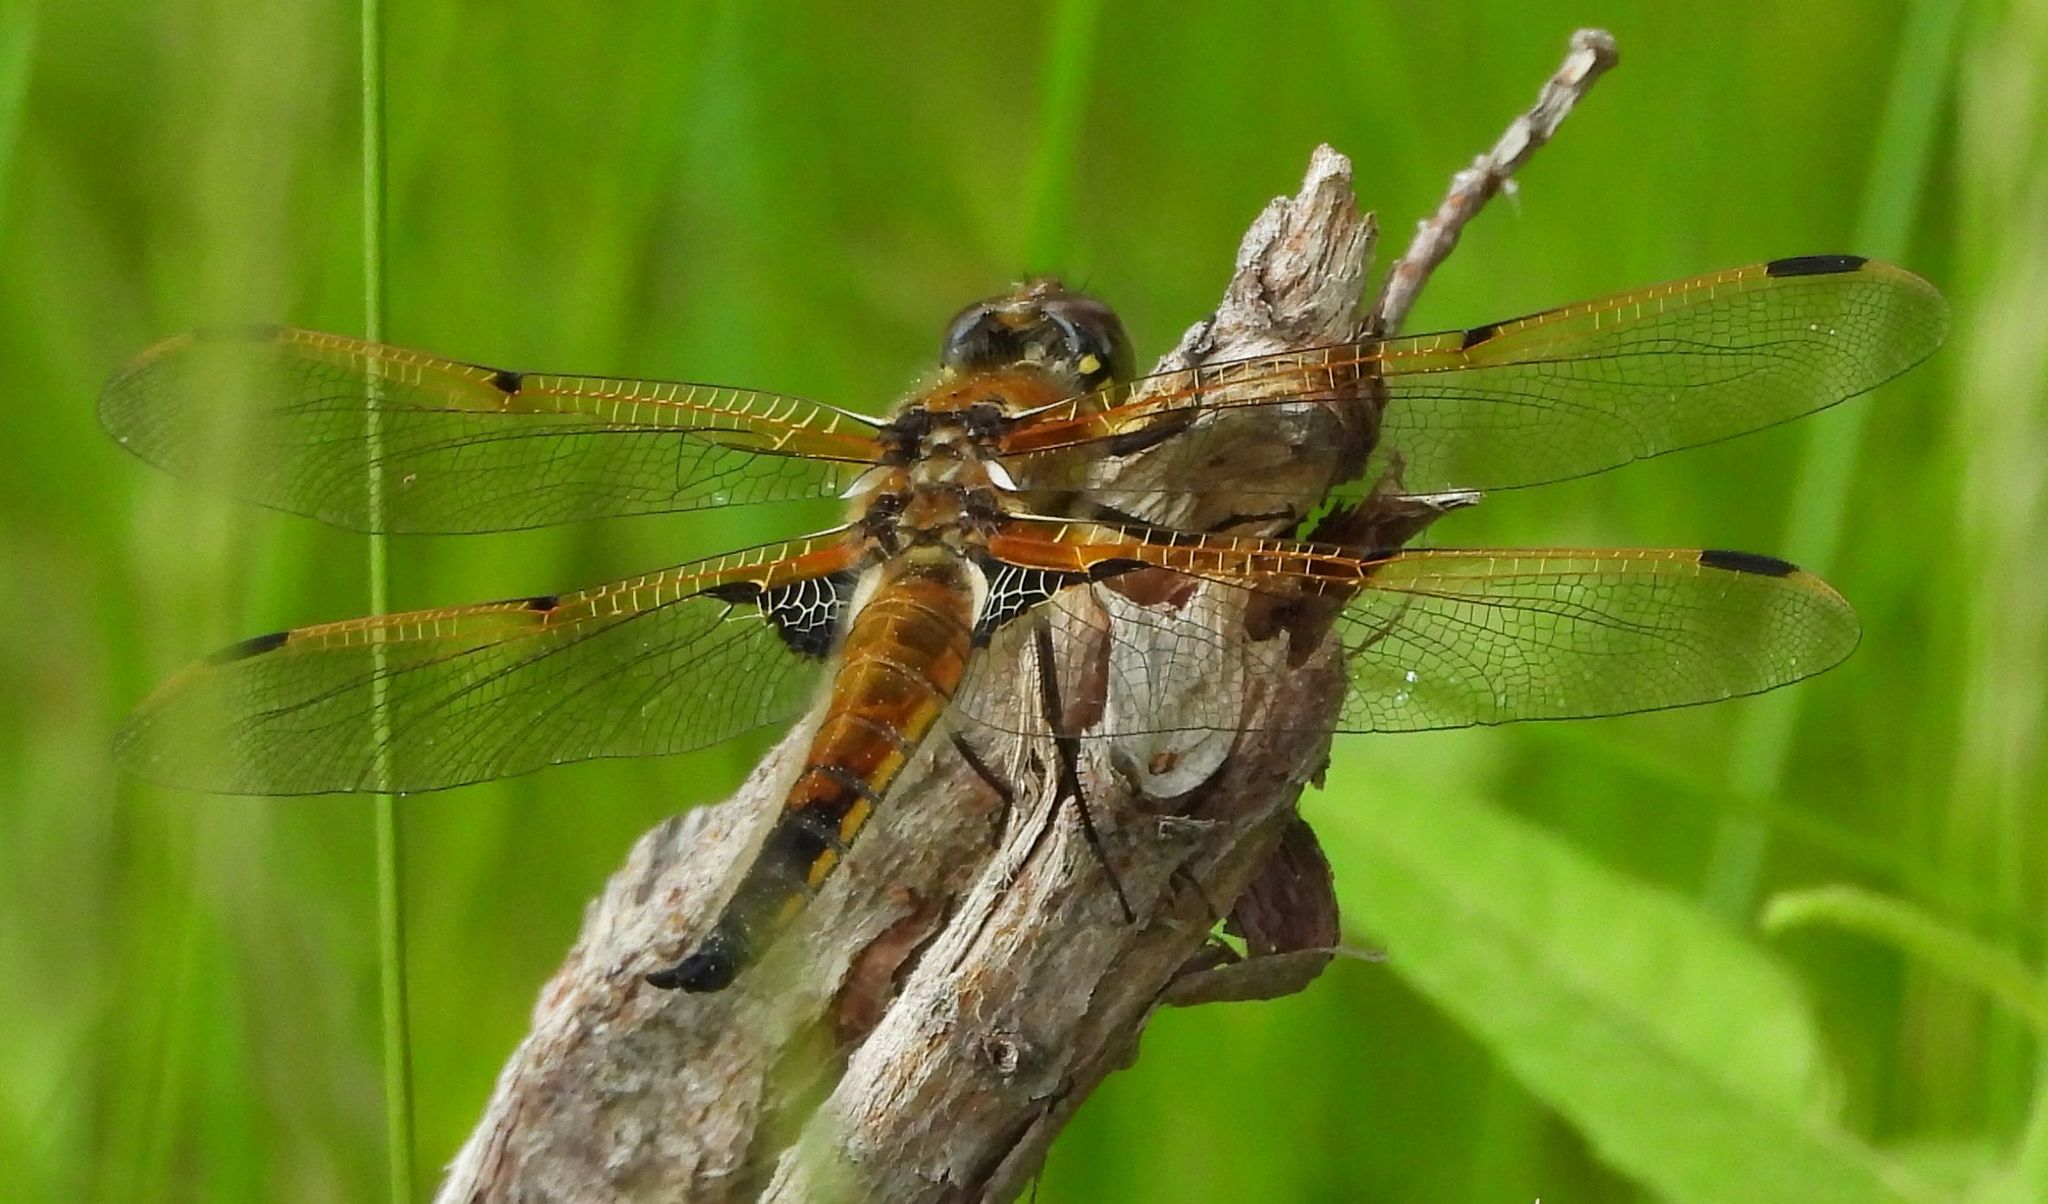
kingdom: Animalia
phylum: Arthropoda
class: Insecta
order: Odonata
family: Libellulidae
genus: Libellula
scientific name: Libellula quadrimaculata
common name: Four-spotted chaser
